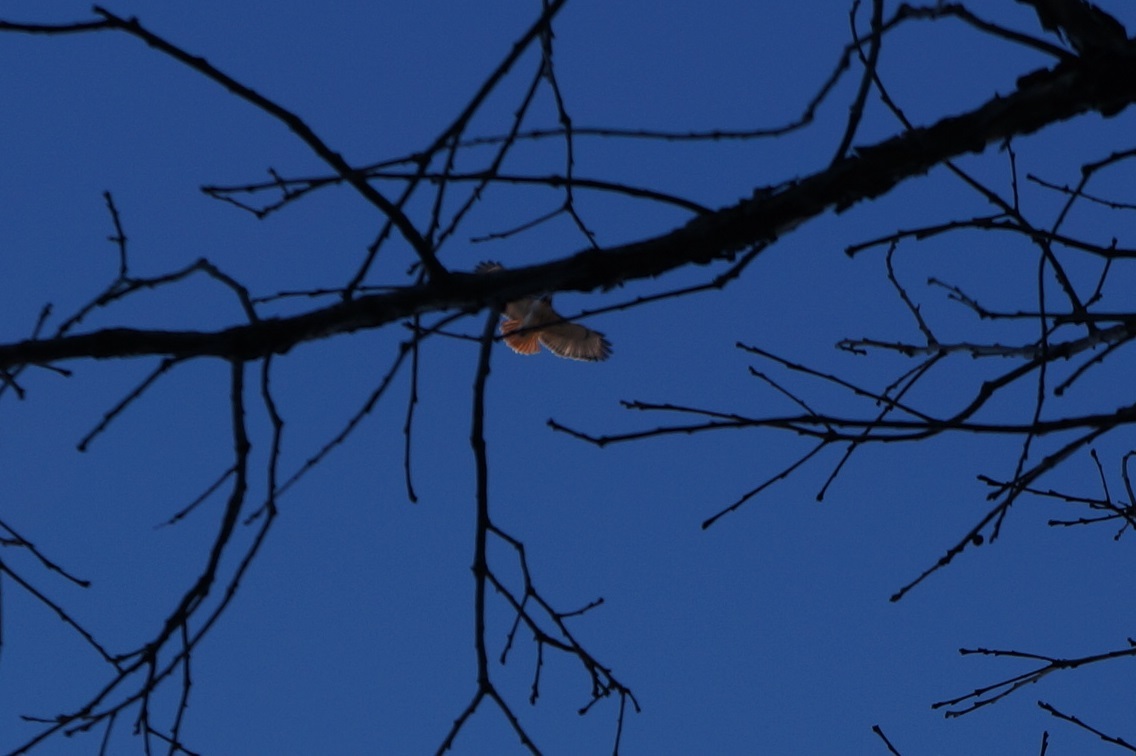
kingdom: Animalia
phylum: Chordata
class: Aves
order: Accipitriformes
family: Accipitridae
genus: Buteo
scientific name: Buteo jamaicensis
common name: Red-tailed hawk
